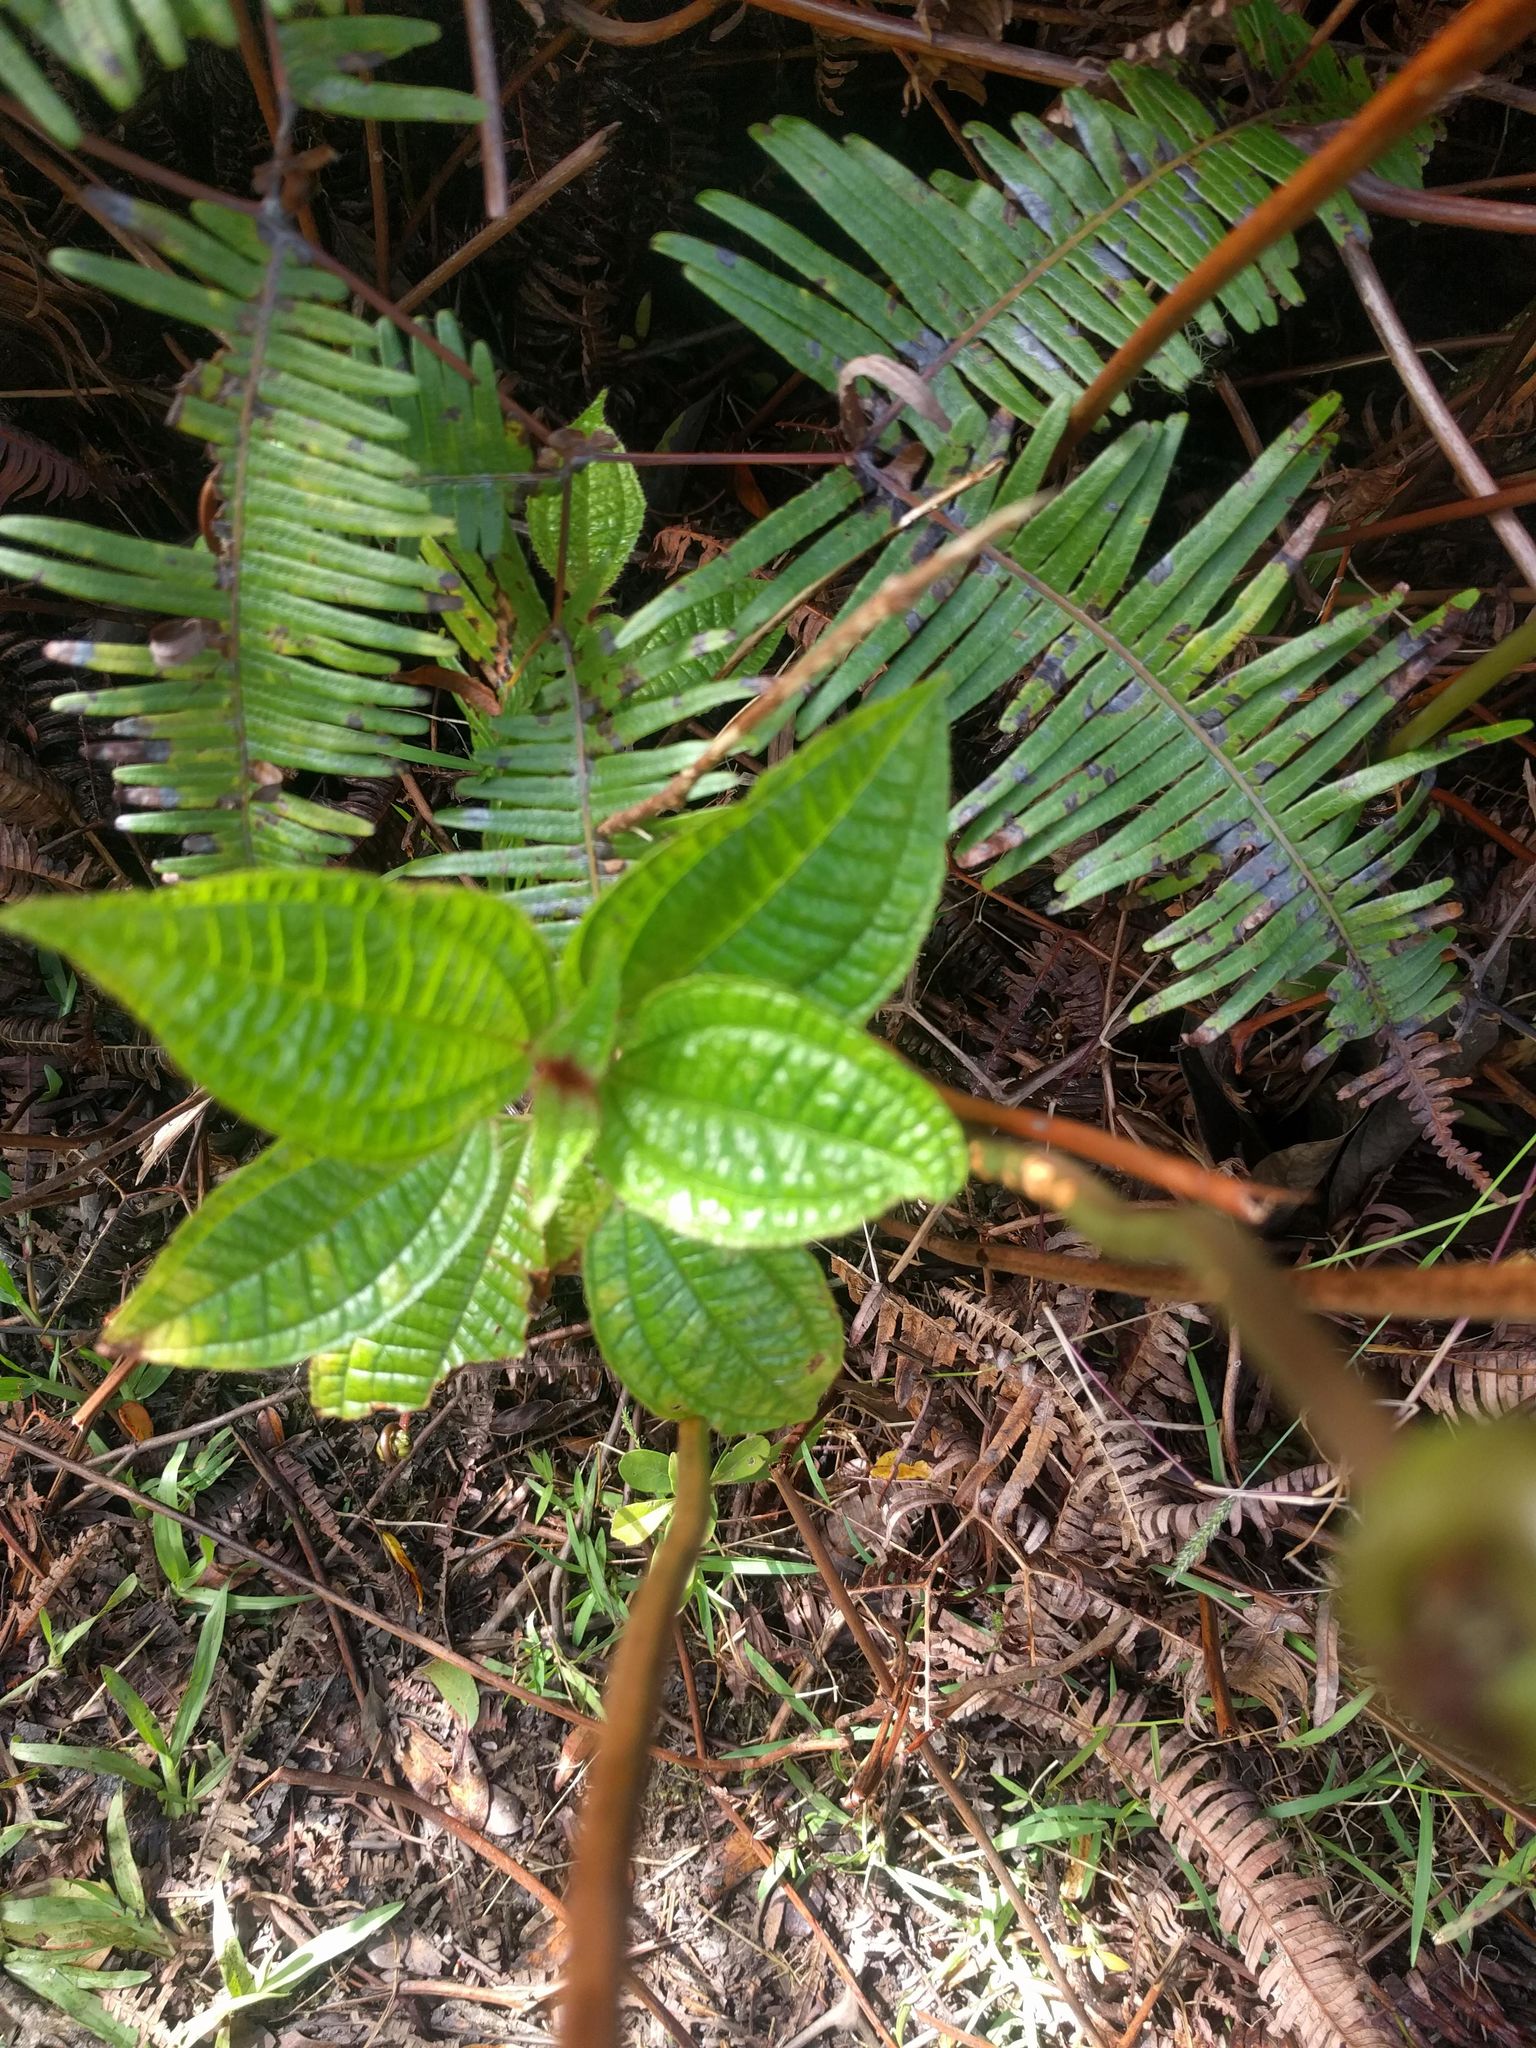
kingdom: Plantae
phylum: Tracheophyta
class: Magnoliopsida
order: Myrtales
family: Melastomataceae
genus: Miconia
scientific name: Miconia crenata
